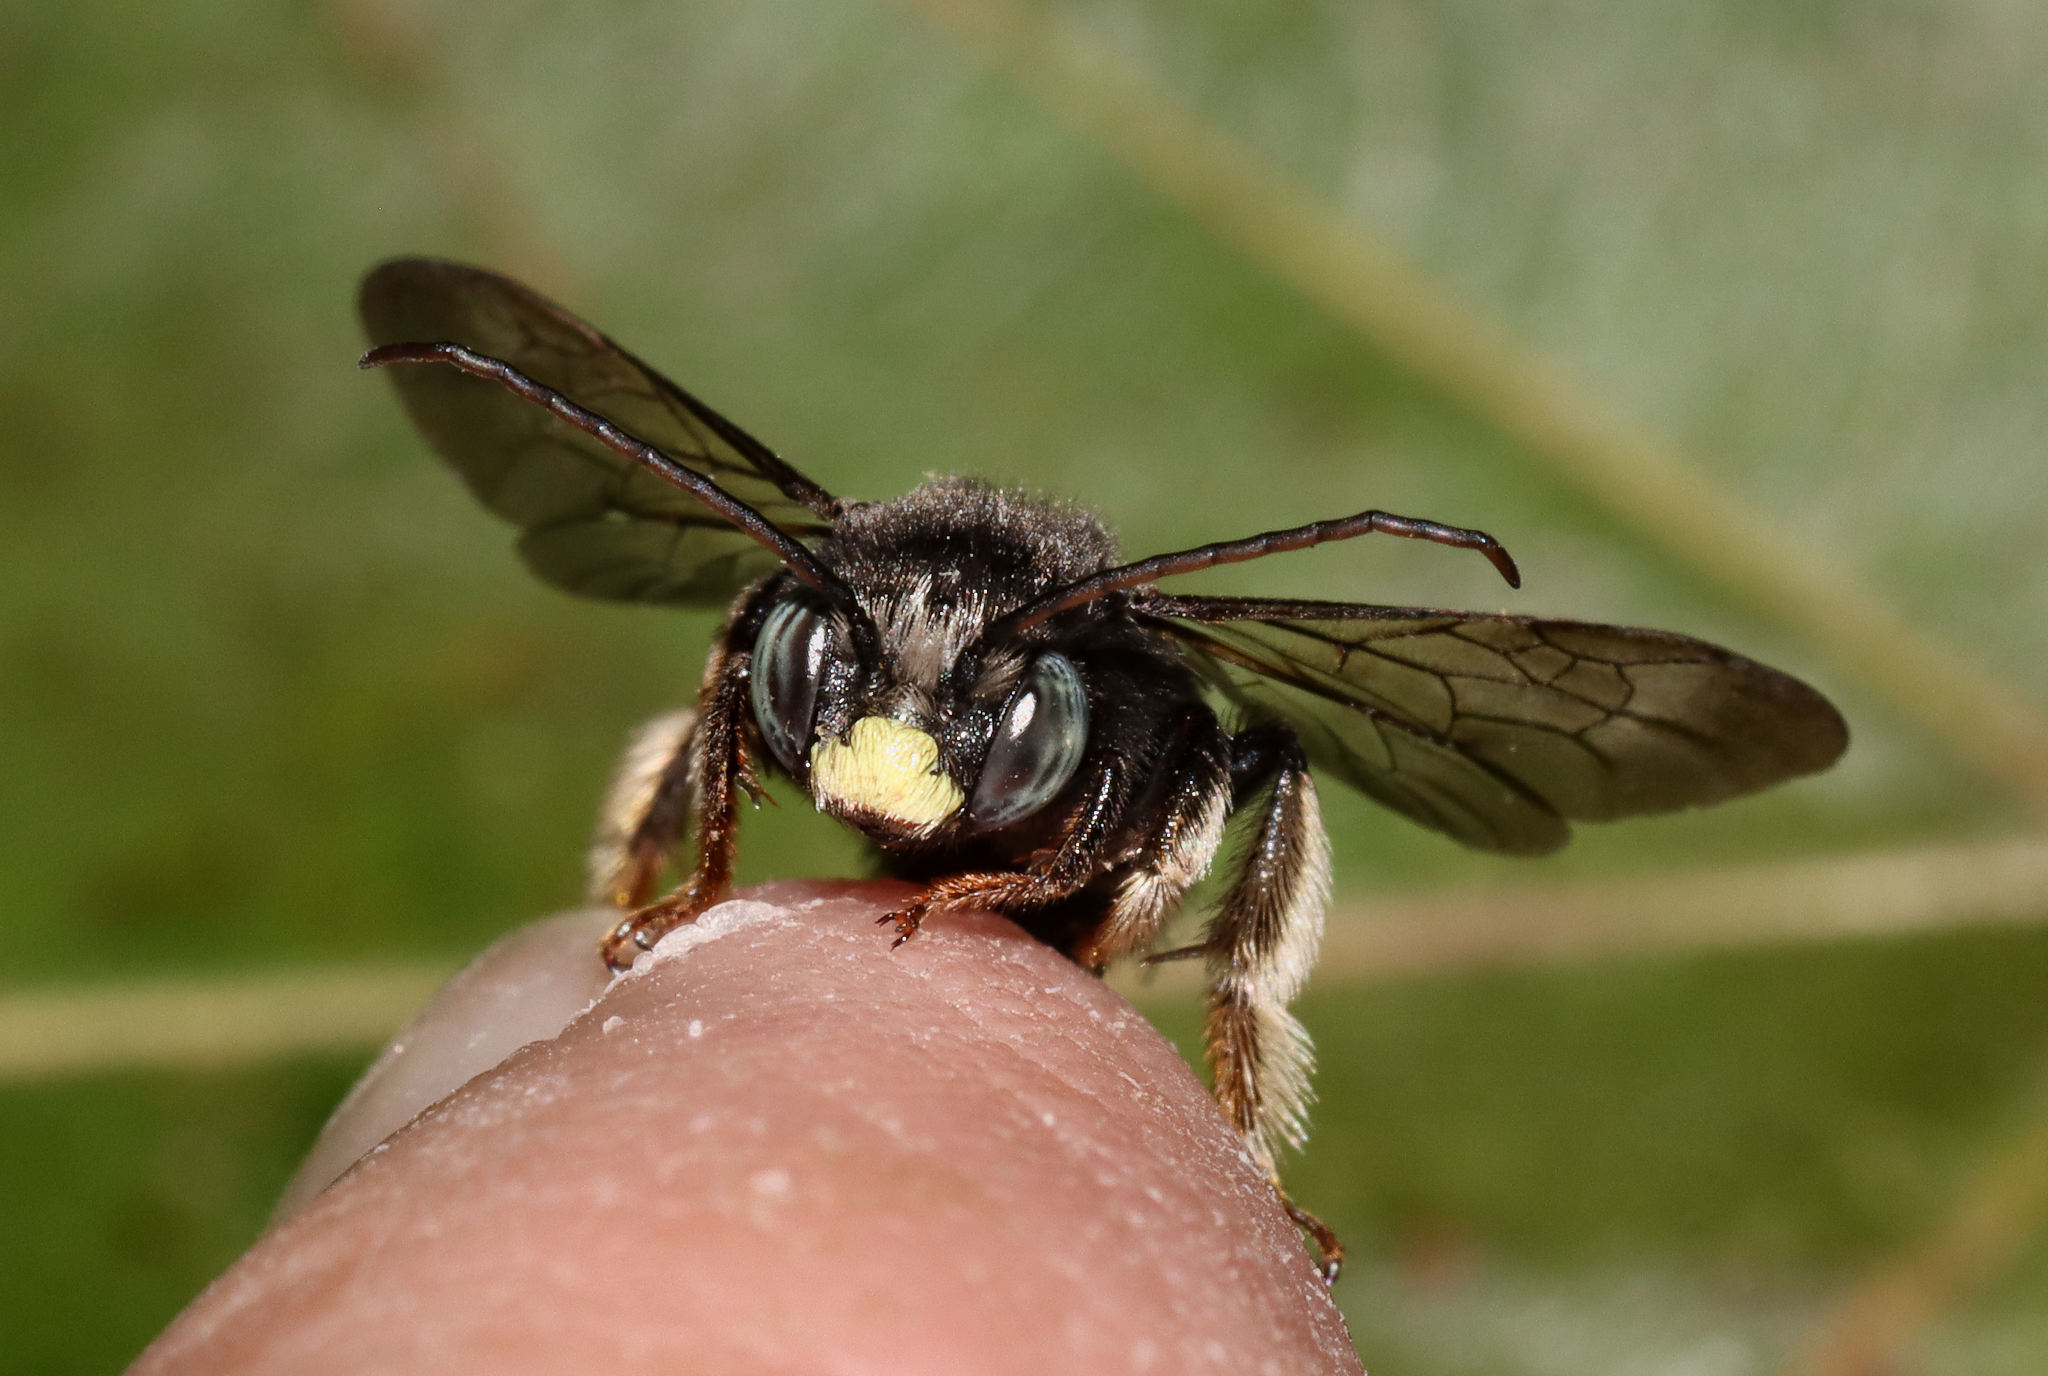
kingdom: Animalia
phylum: Arthropoda
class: Insecta
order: Hymenoptera
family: Apidae
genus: Melissodes
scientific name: Melissodes bimaculatus
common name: Two-spotted long-horned bee
